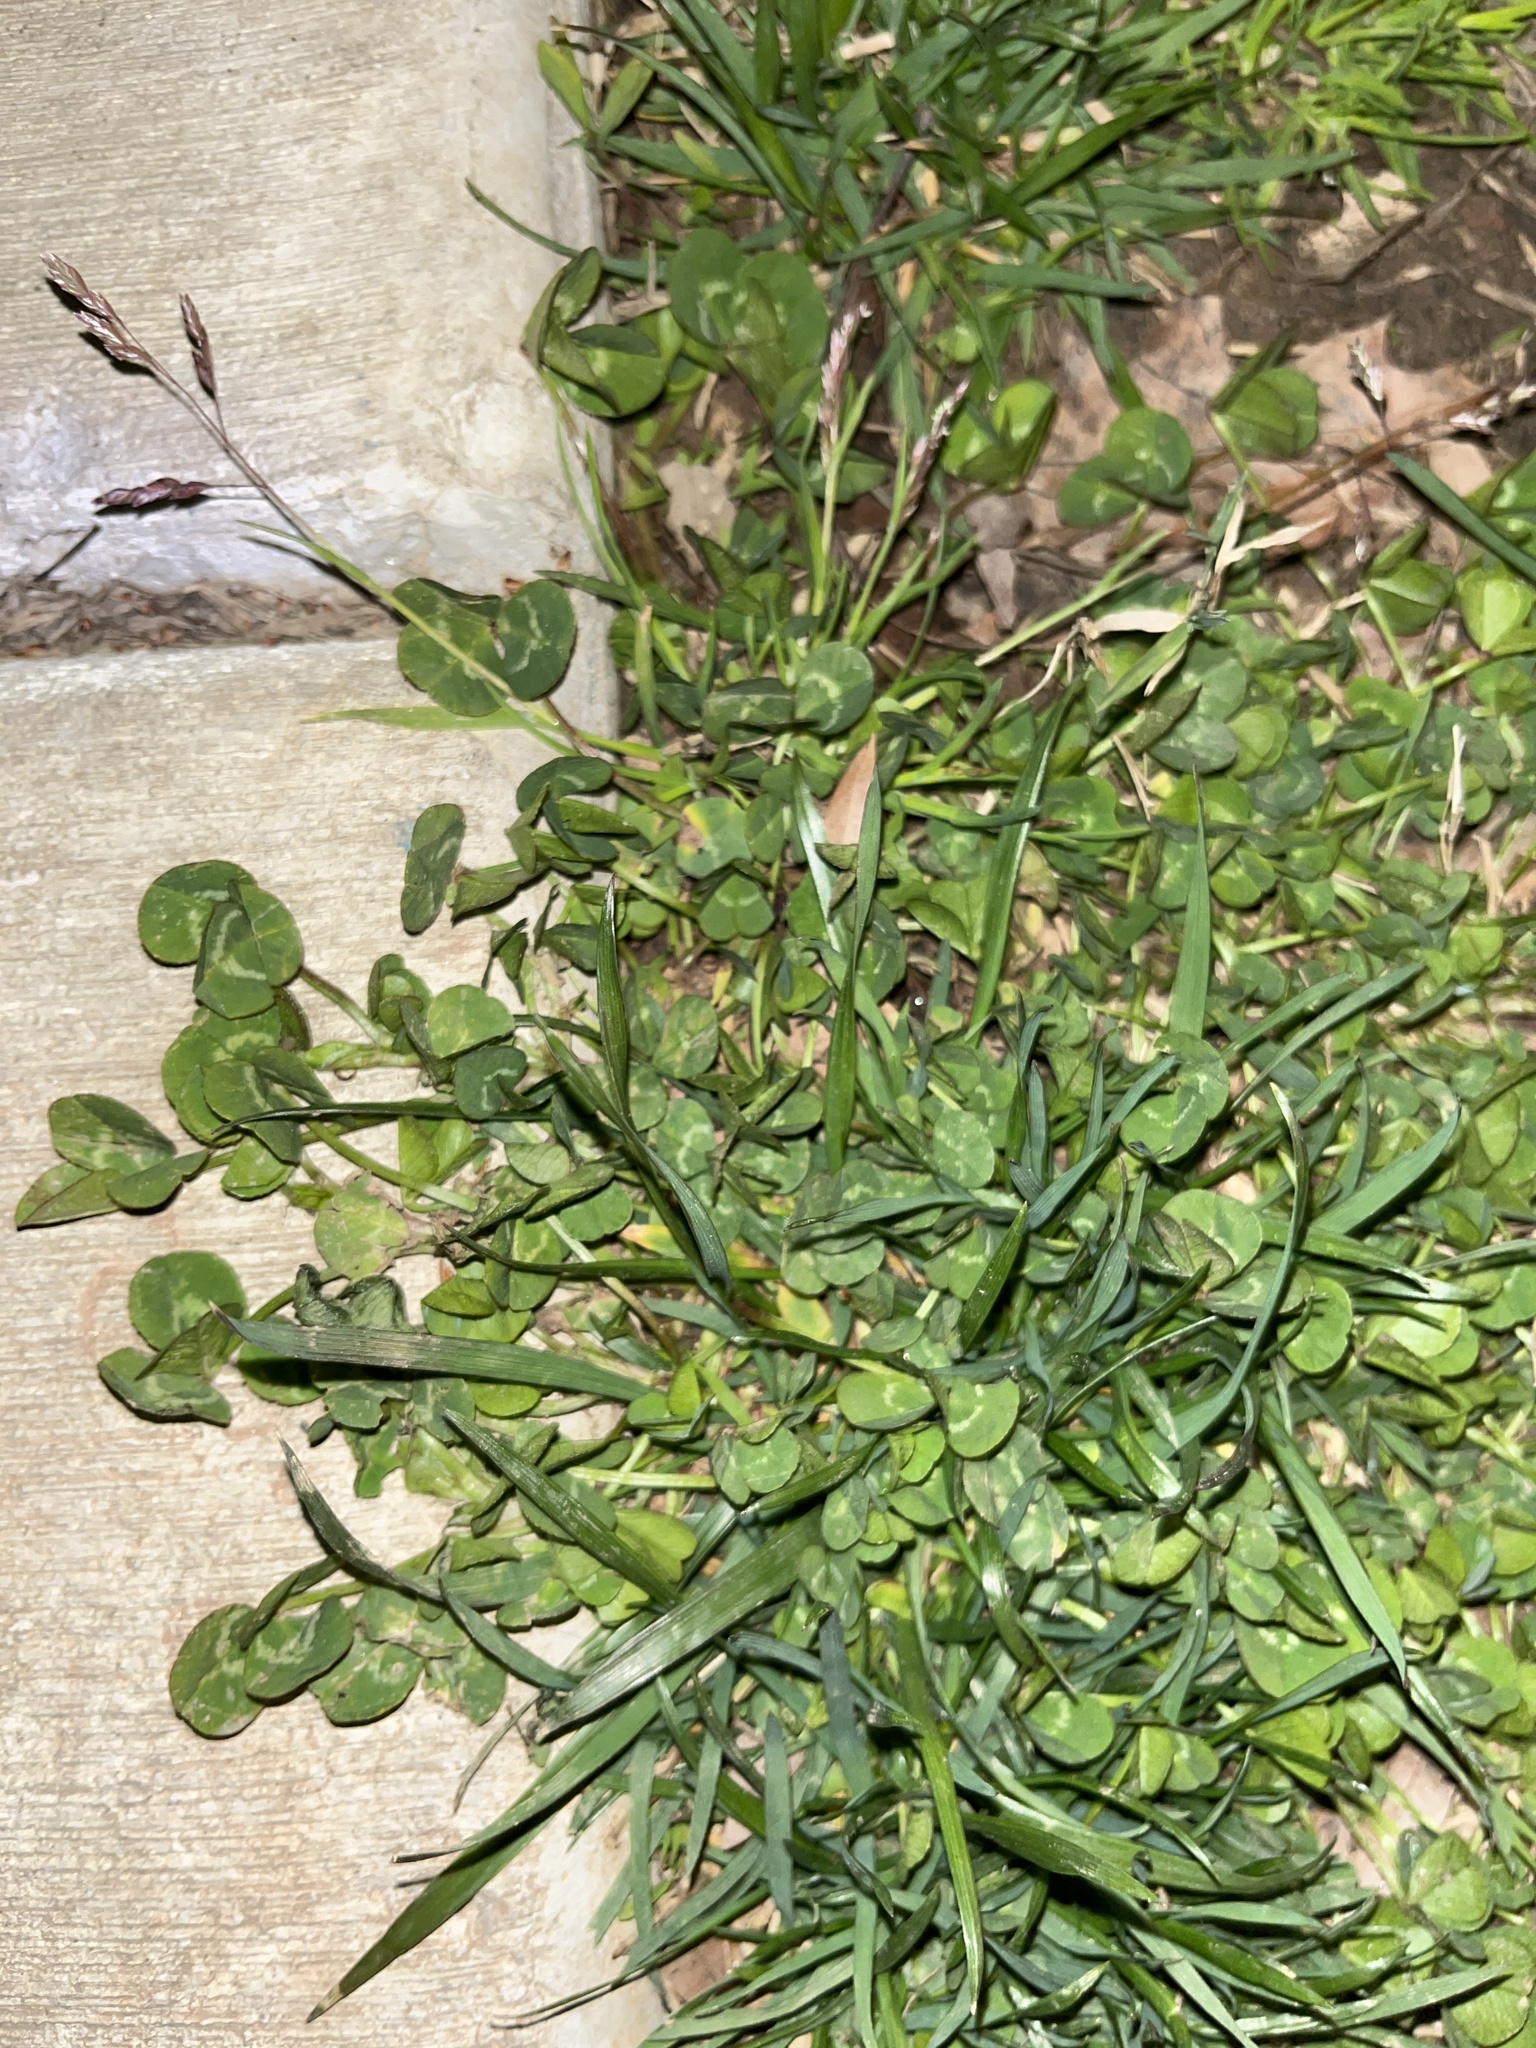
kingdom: Plantae
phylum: Tracheophyta
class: Magnoliopsida
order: Fabales
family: Fabaceae
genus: Trifolium
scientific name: Trifolium repens
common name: White clover
